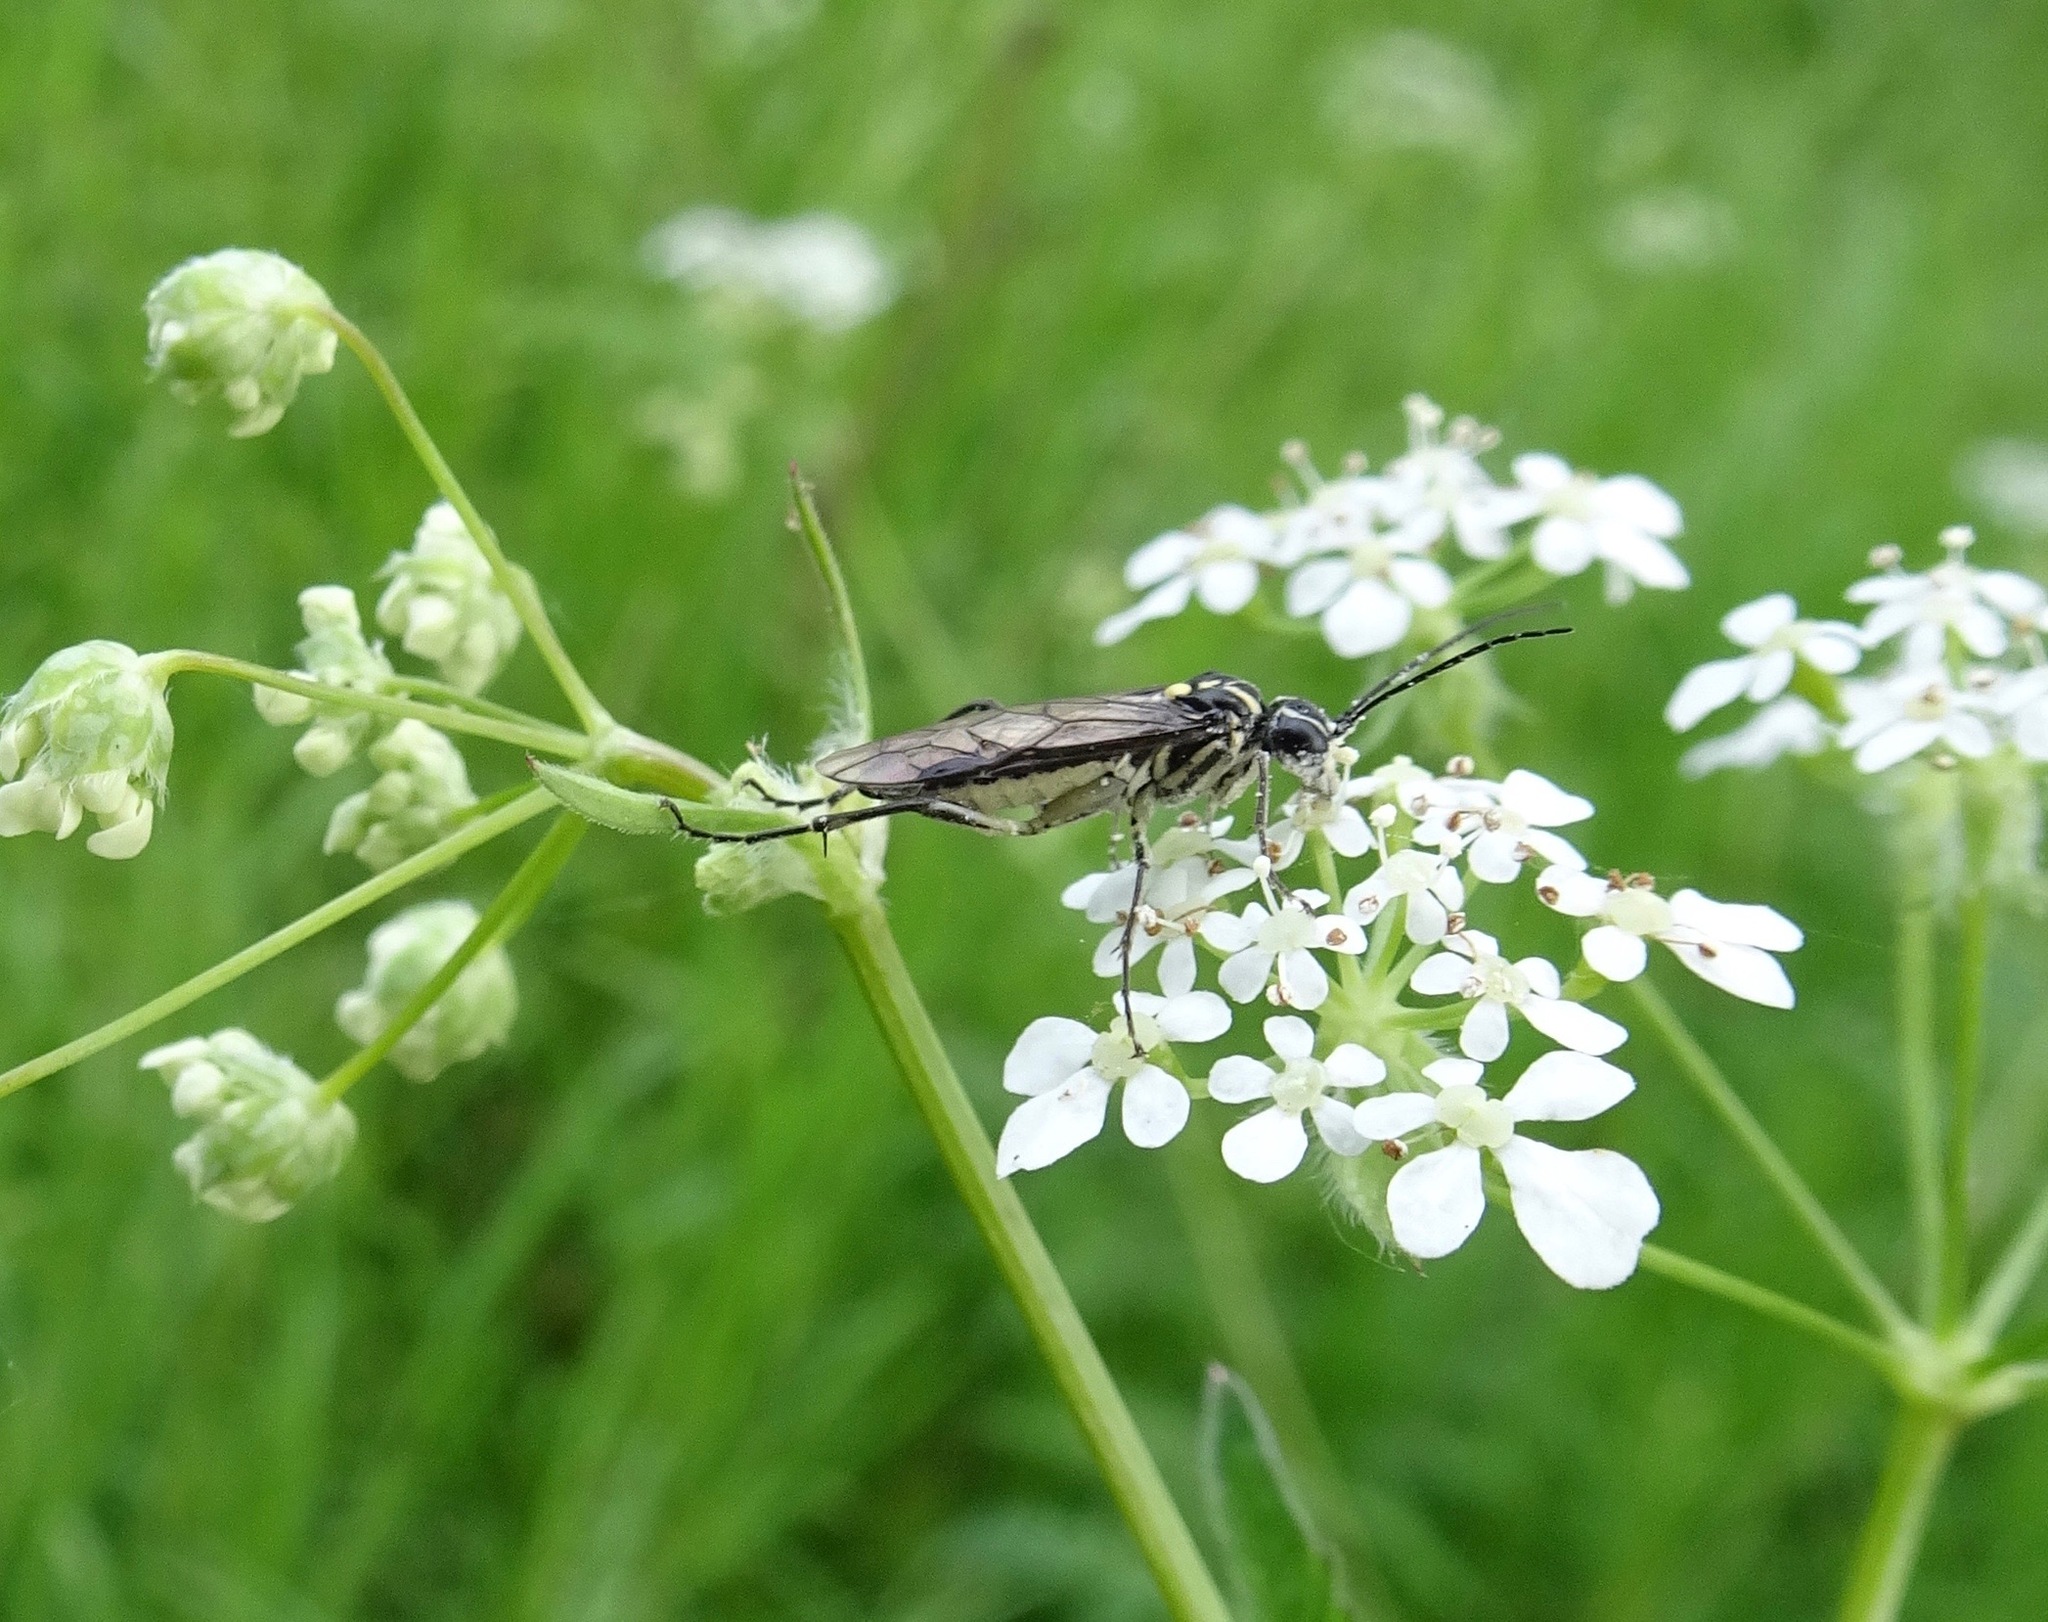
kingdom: Animalia
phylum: Arthropoda
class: Insecta
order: Hymenoptera
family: Tenthredinidae
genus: Pachyprotasis
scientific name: Pachyprotasis rapae
